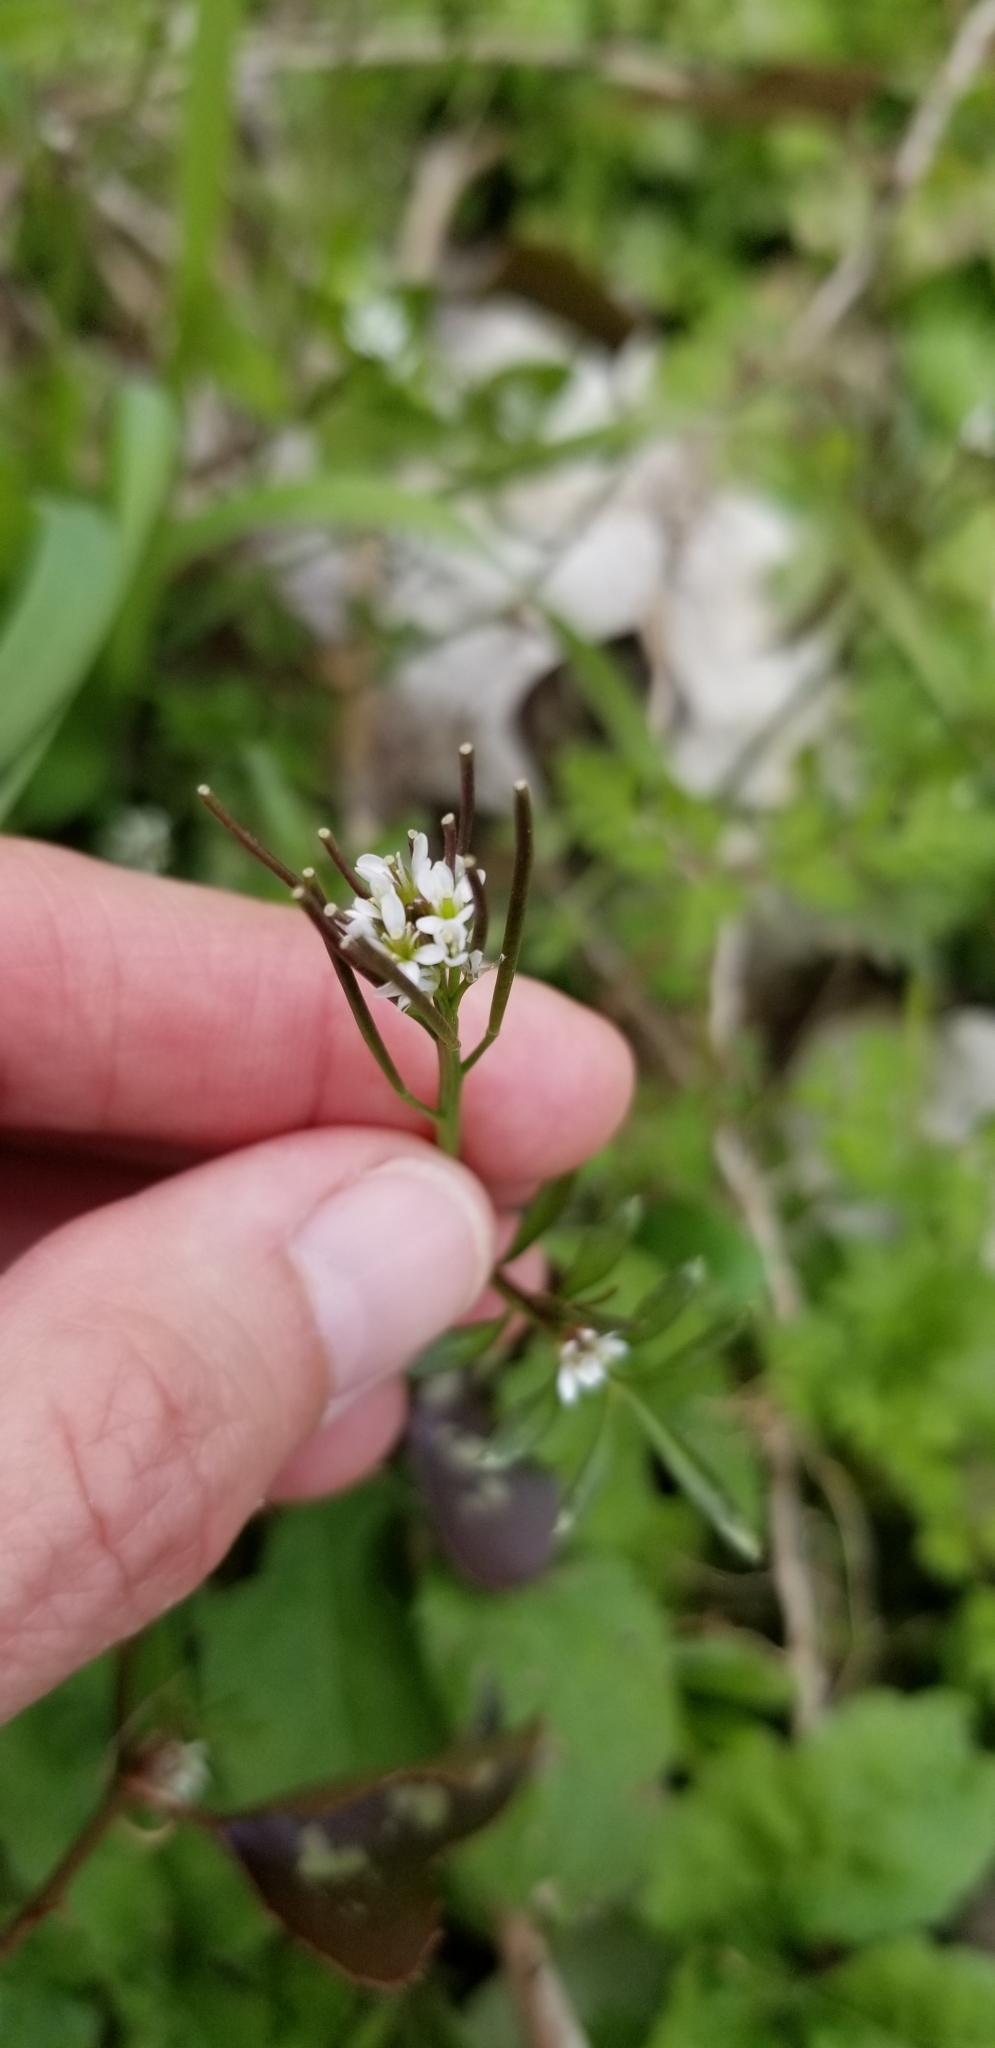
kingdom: Plantae
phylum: Tracheophyta
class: Magnoliopsida
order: Brassicales
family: Brassicaceae
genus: Cardamine
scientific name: Cardamine hirsuta
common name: Hairy bittercress
